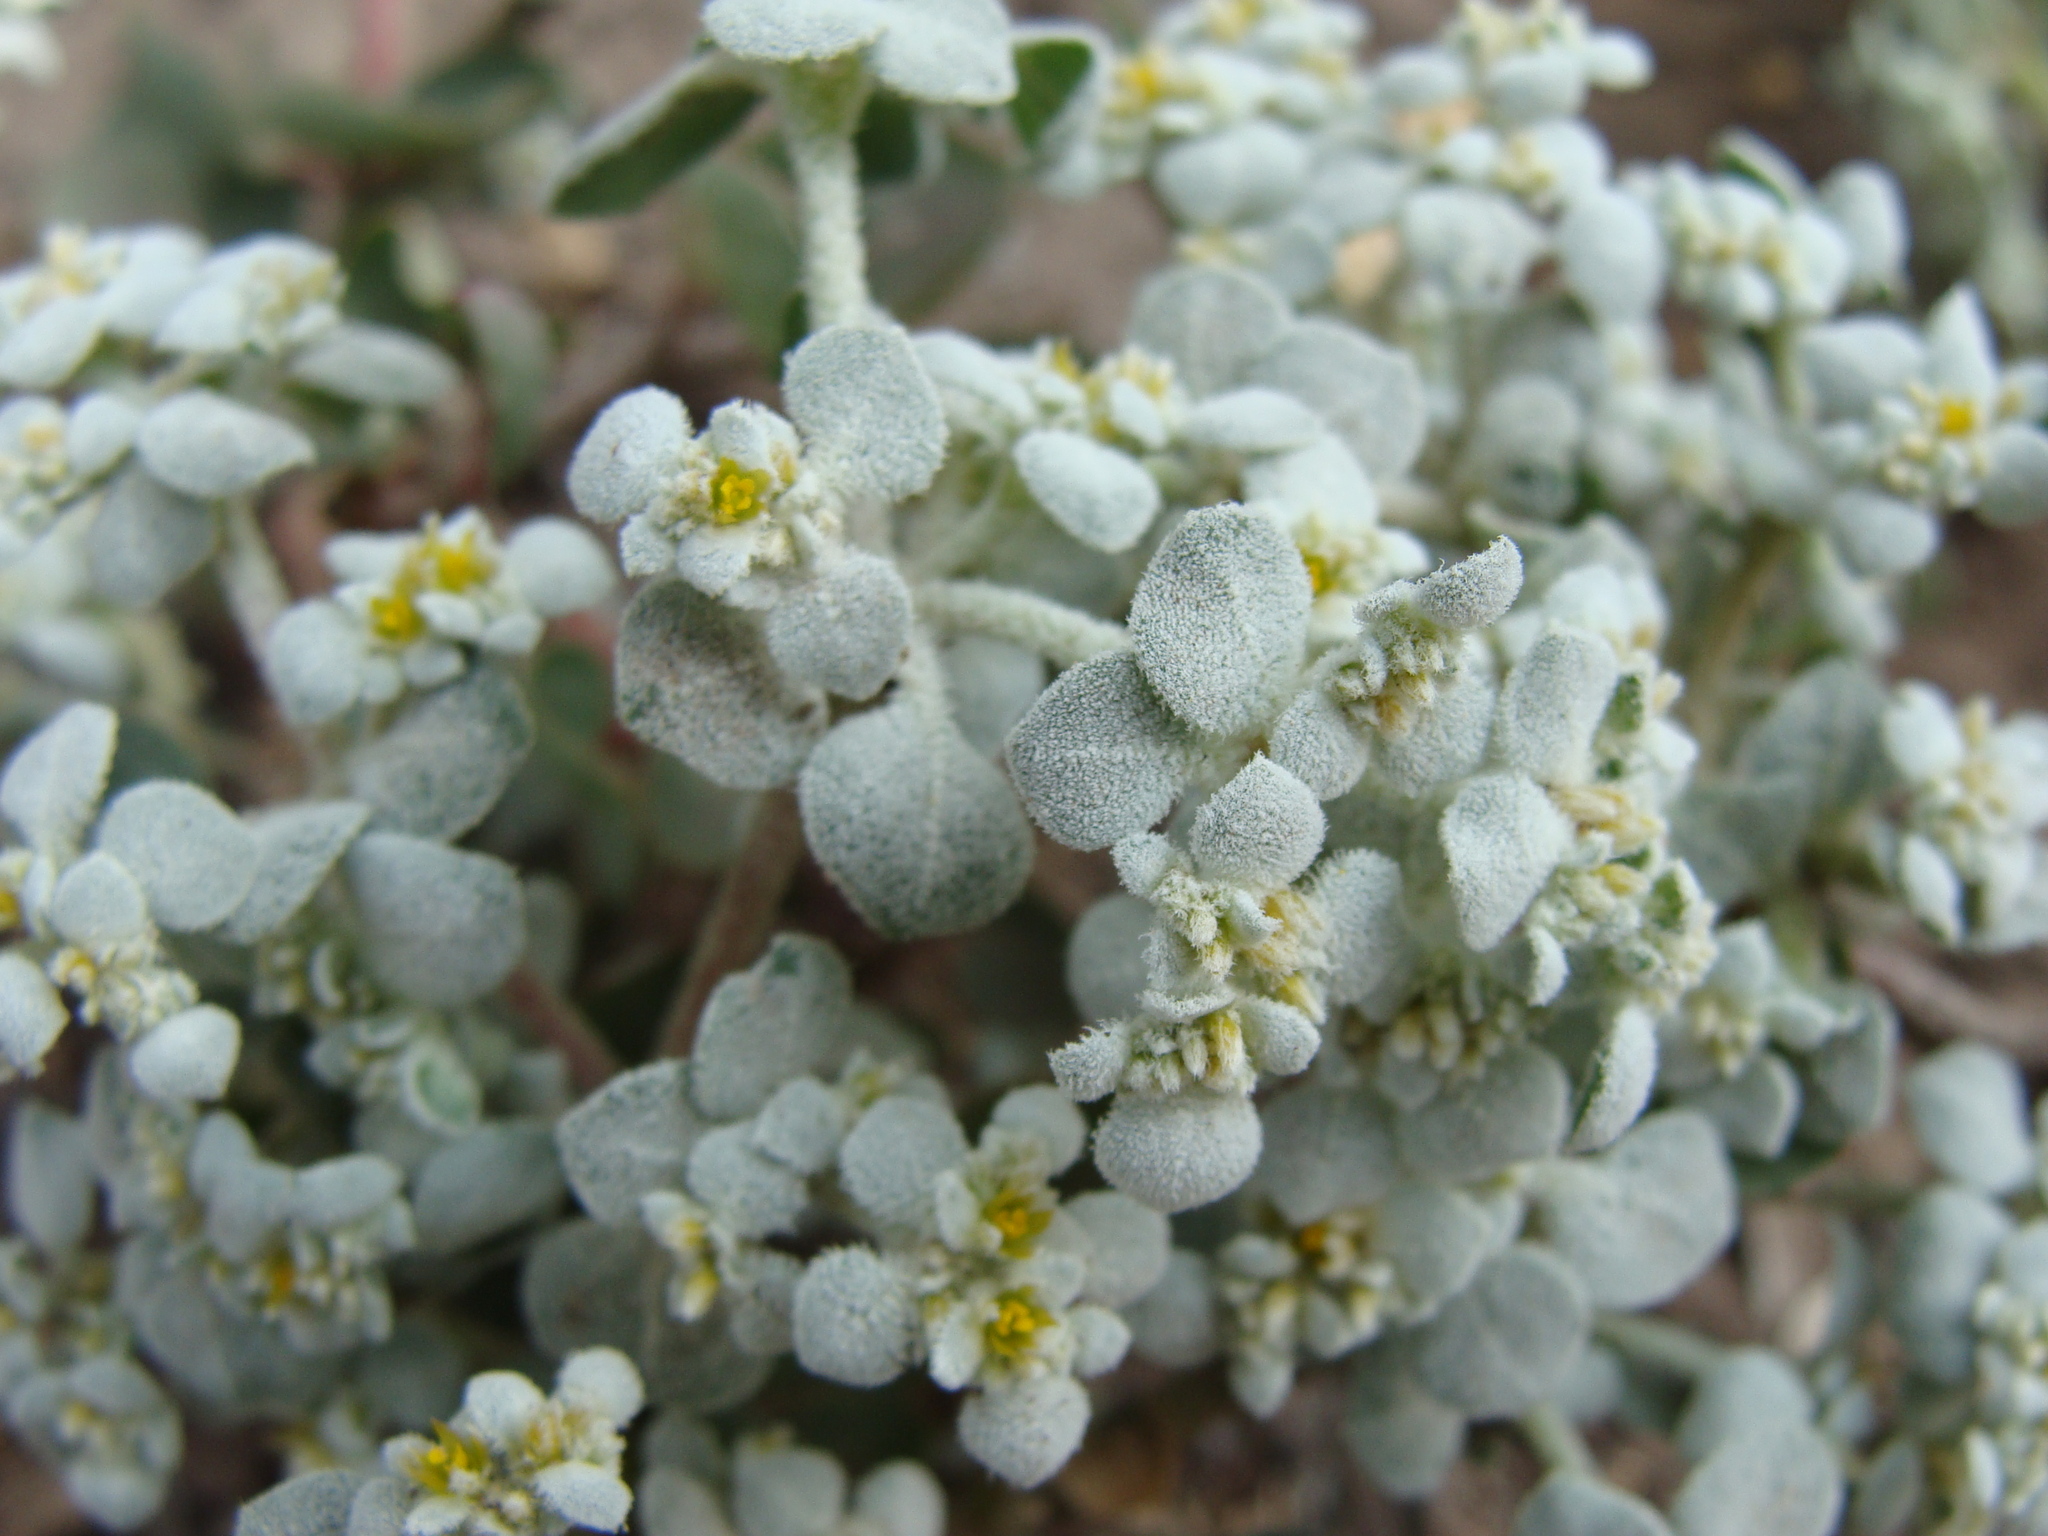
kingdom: Plantae
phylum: Tracheophyta
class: Magnoliopsida
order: Caryophyllales
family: Amaranthaceae
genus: Tidestromia
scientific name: Tidestromia lanuginosa
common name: Woolly tidestromia
